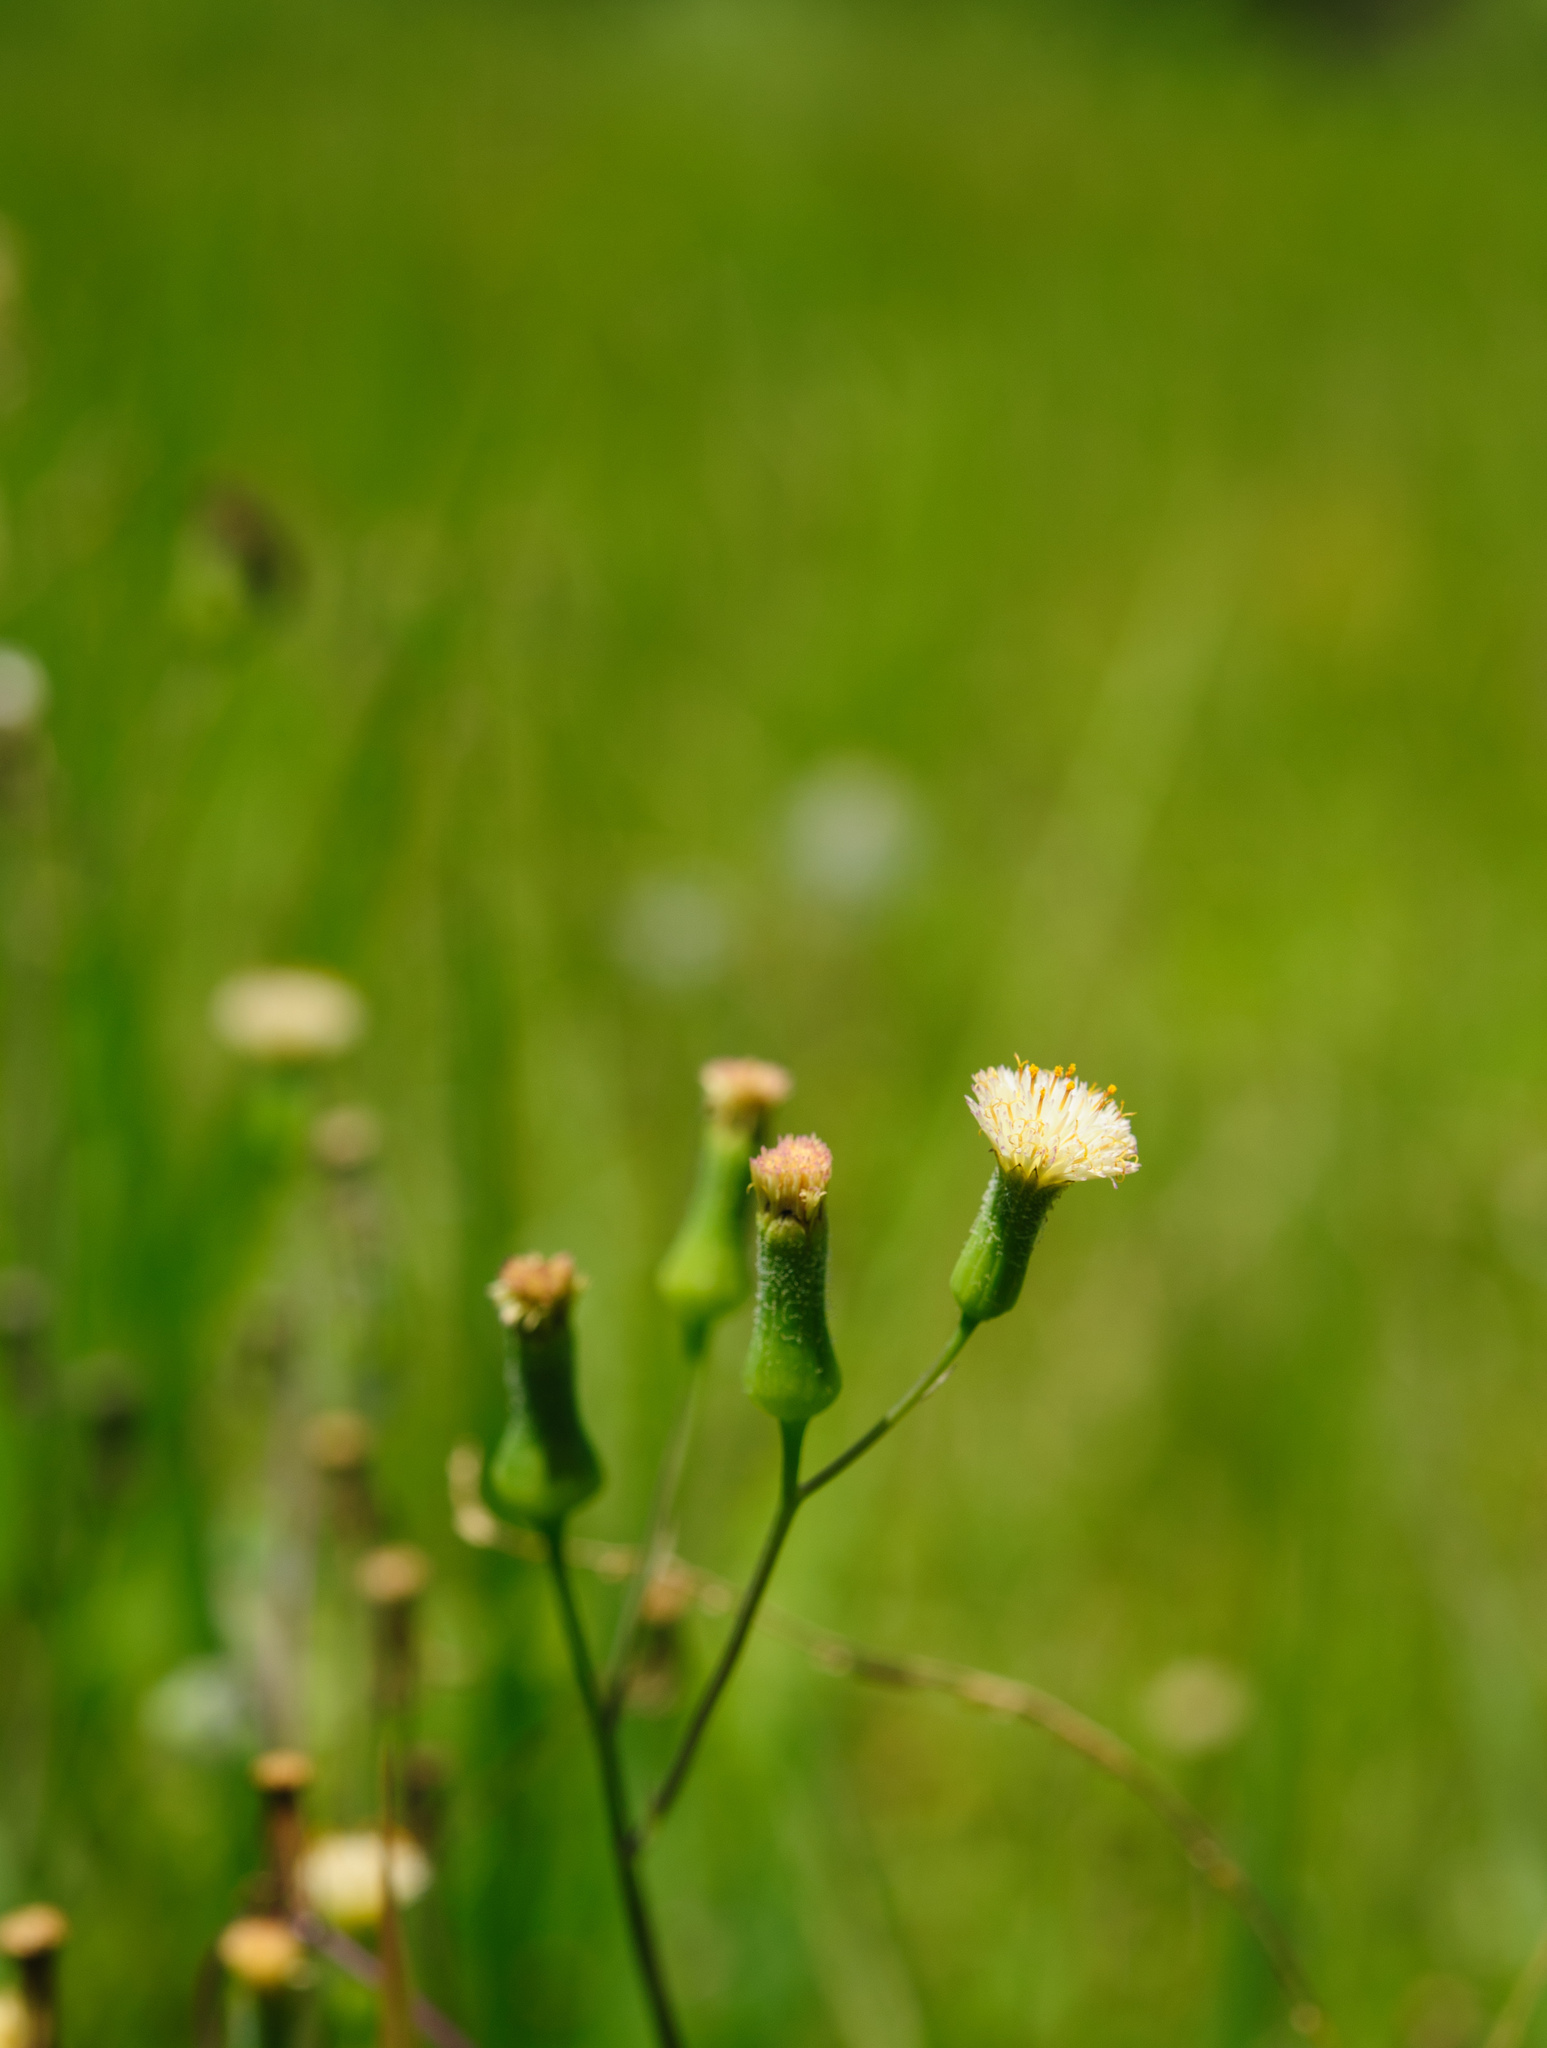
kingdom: Plantae
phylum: Tracheophyta
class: Magnoliopsida
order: Asterales
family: Asteraceae
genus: Emilia
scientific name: Emilia praetermissa
